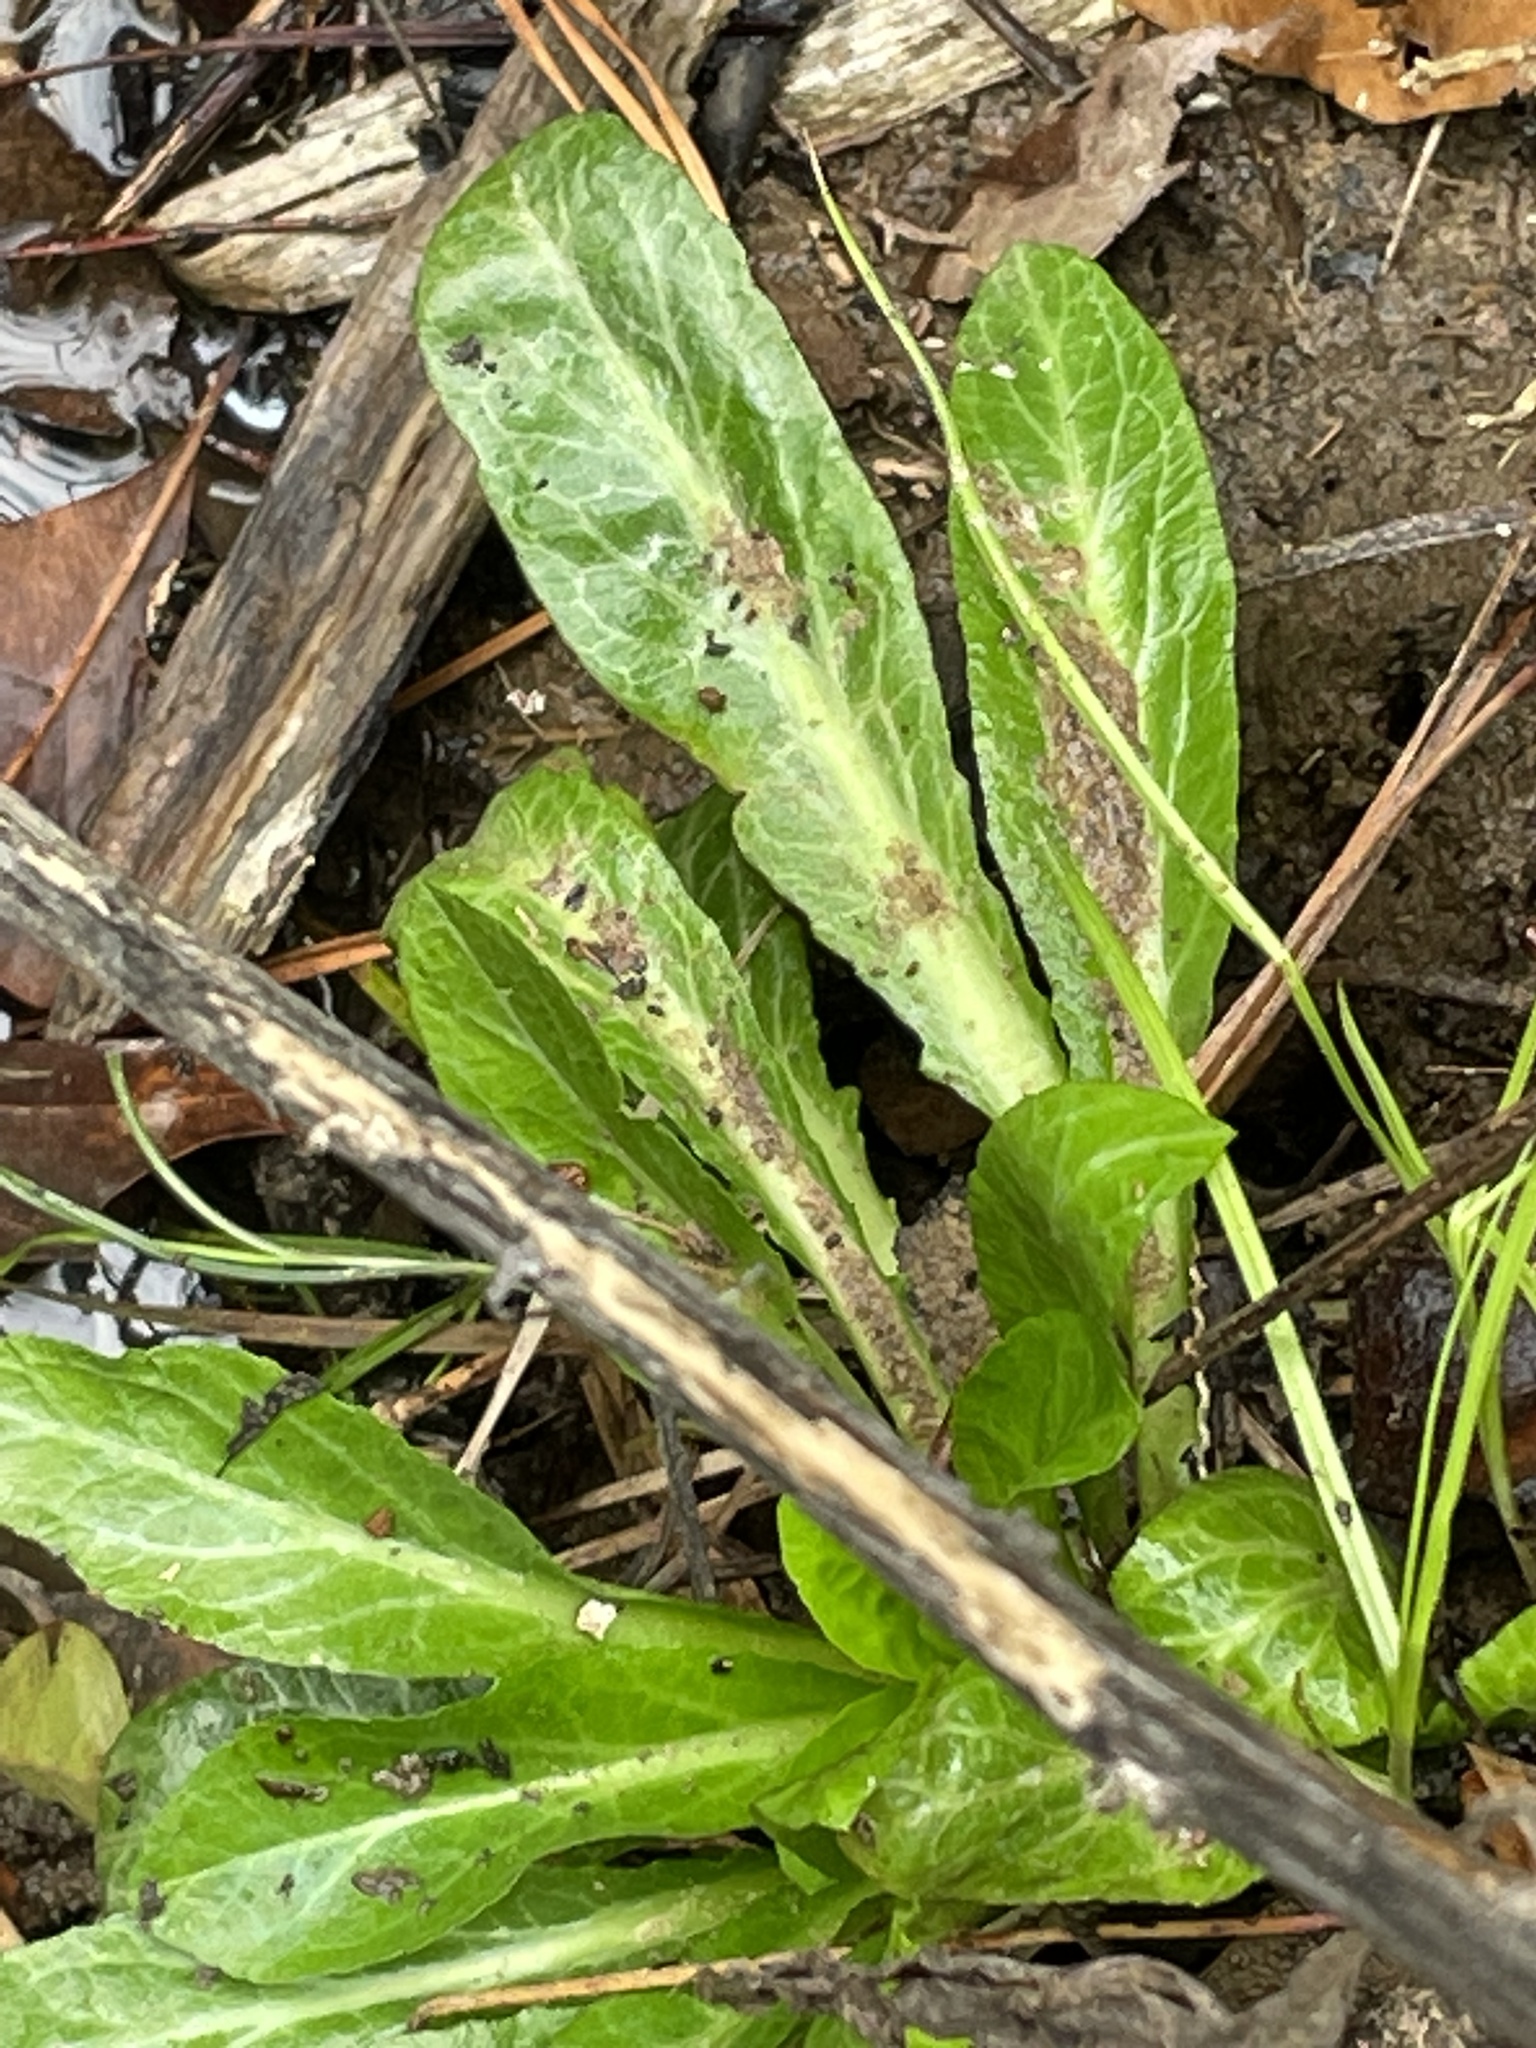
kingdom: Plantae
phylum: Tracheophyta
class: Magnoliopsida
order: Asterales
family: Campanulaceae
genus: Lobelia
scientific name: Lobelia cardinalis
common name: Cardinal flower
